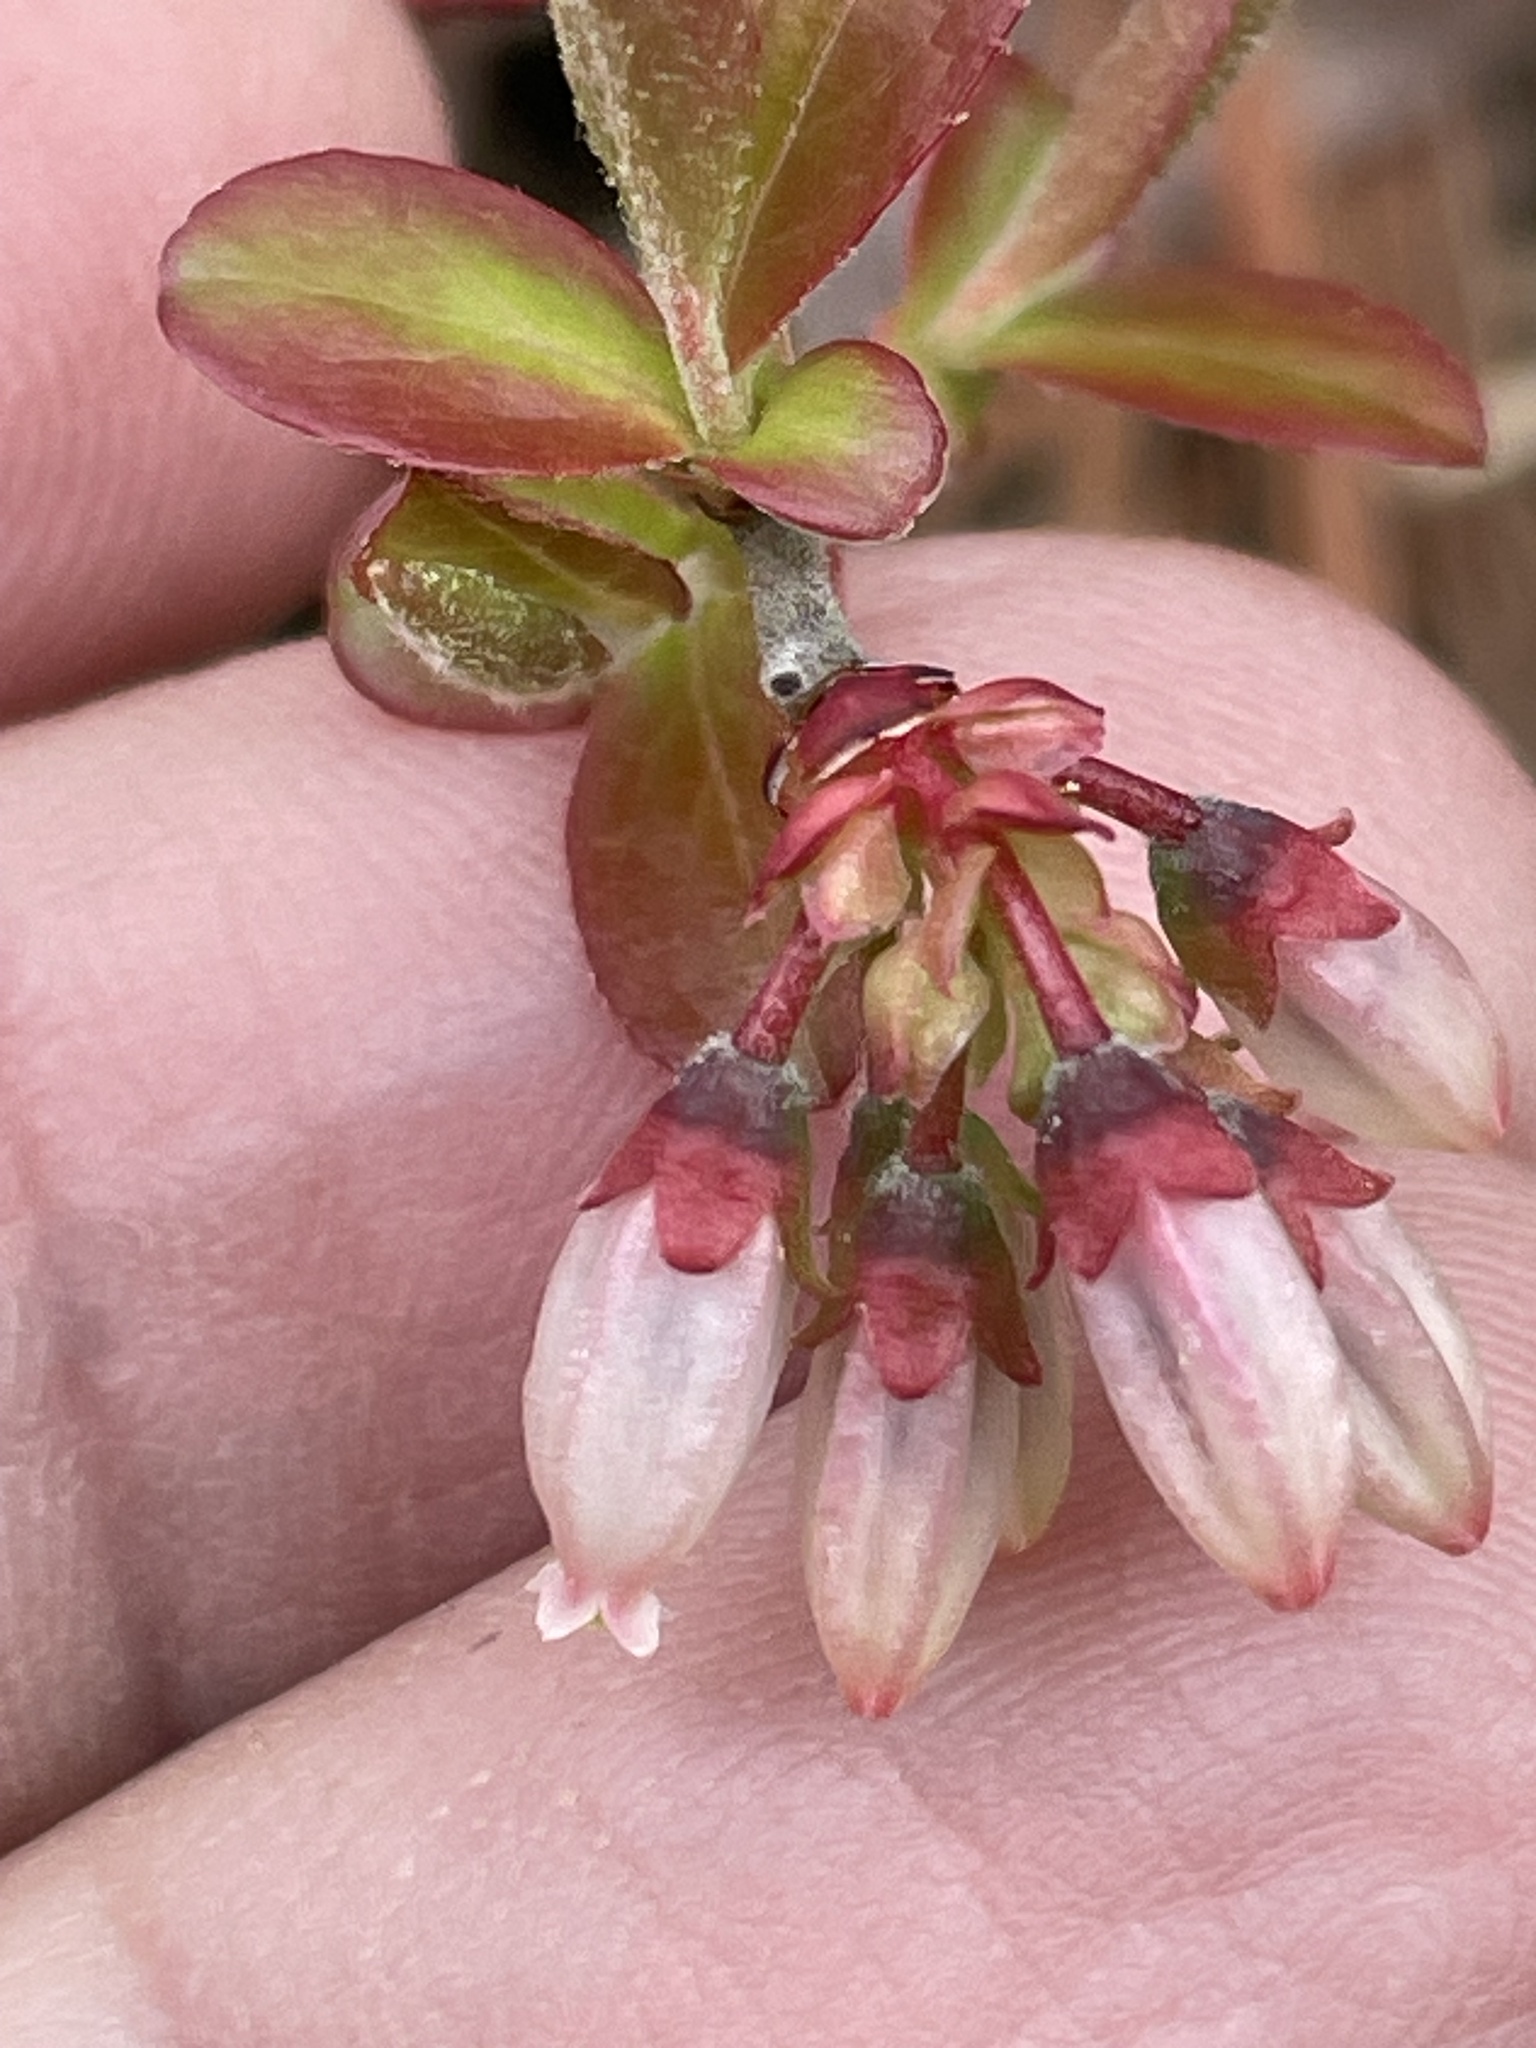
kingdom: Plantae
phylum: Tracheophyta
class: Magnoliopsida
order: Ericales
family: Ericaceae
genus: Vaccinium
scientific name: Vaccinium tenellum
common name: Southern blueberry
